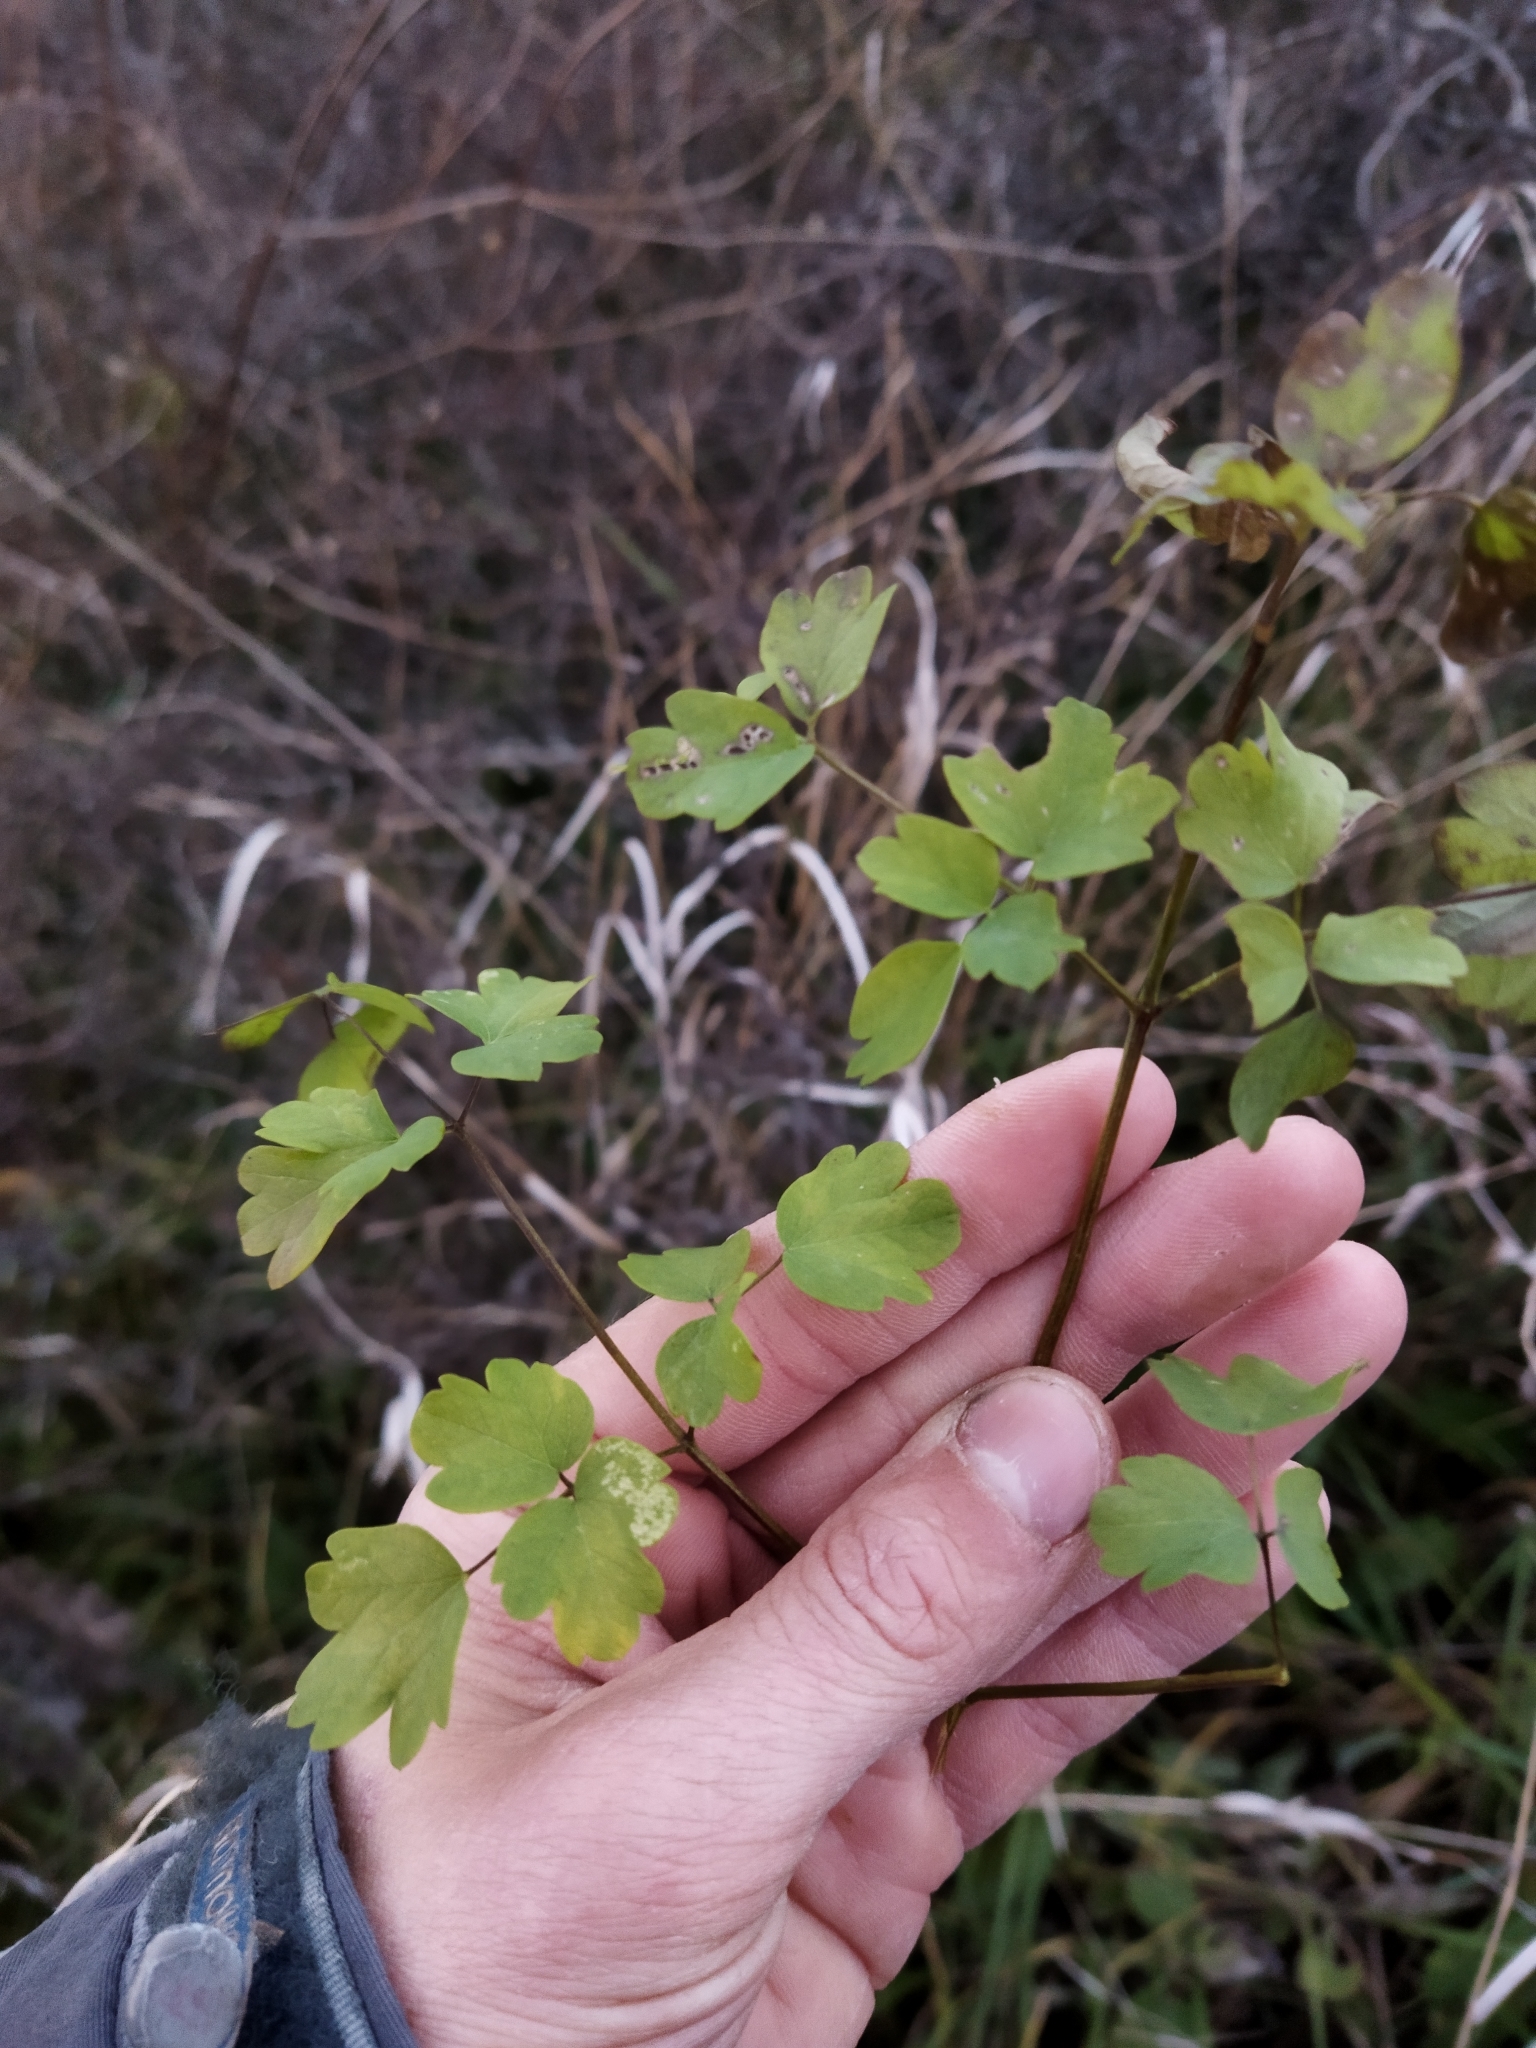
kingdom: Plantae
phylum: Tracheophyta
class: Magnoliopsida
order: Ranunculales
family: Ranunculaceae
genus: Thalictrum
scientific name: Thalictrum minus
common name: Lesser meadow-rue
